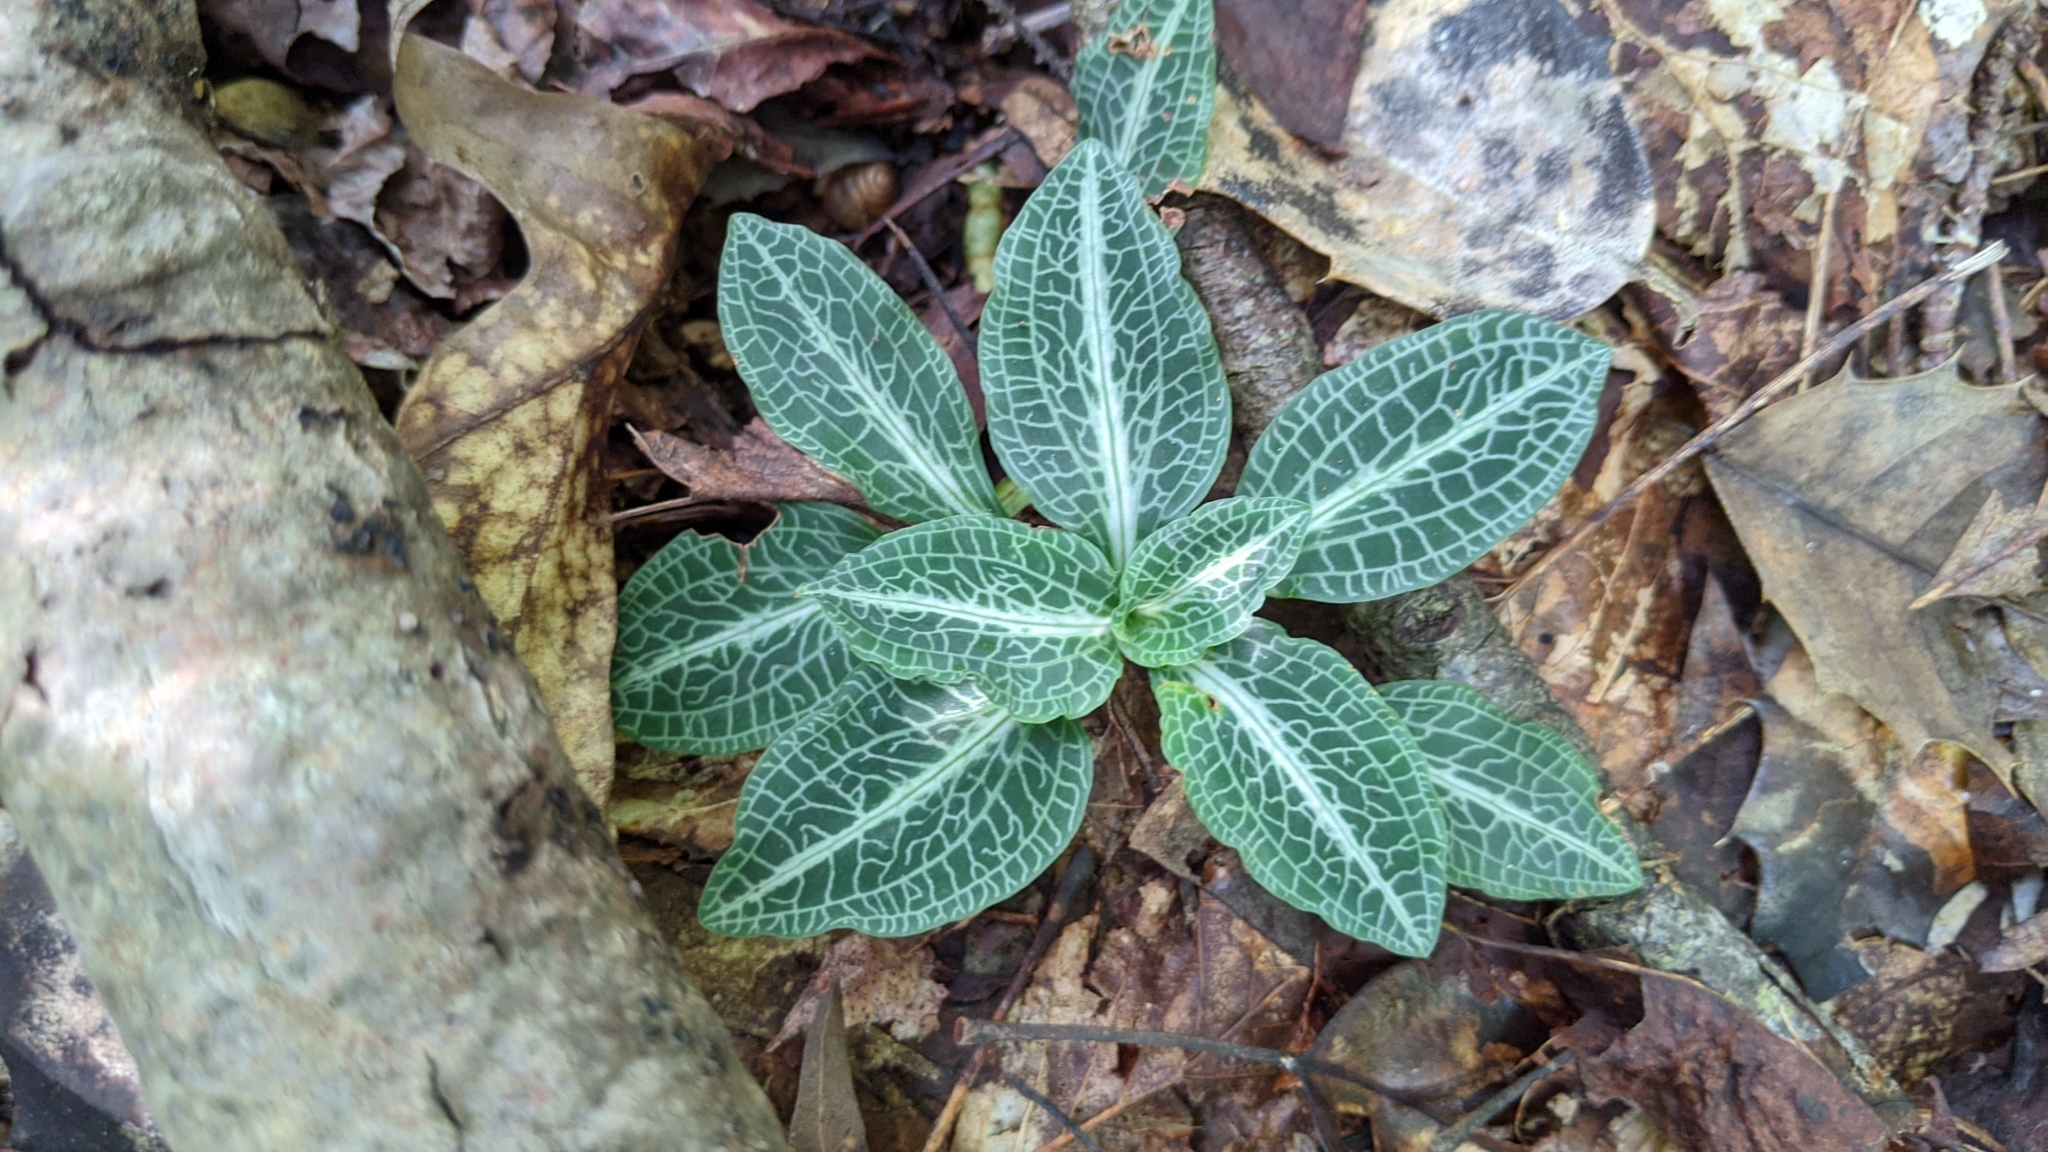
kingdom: Plantae
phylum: Tracheophyta
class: Liliopsida
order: Asparagales
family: Orchidaceae
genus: Goodyera
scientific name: Goodyera pubescens
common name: Downy rattlesnake-plantain
